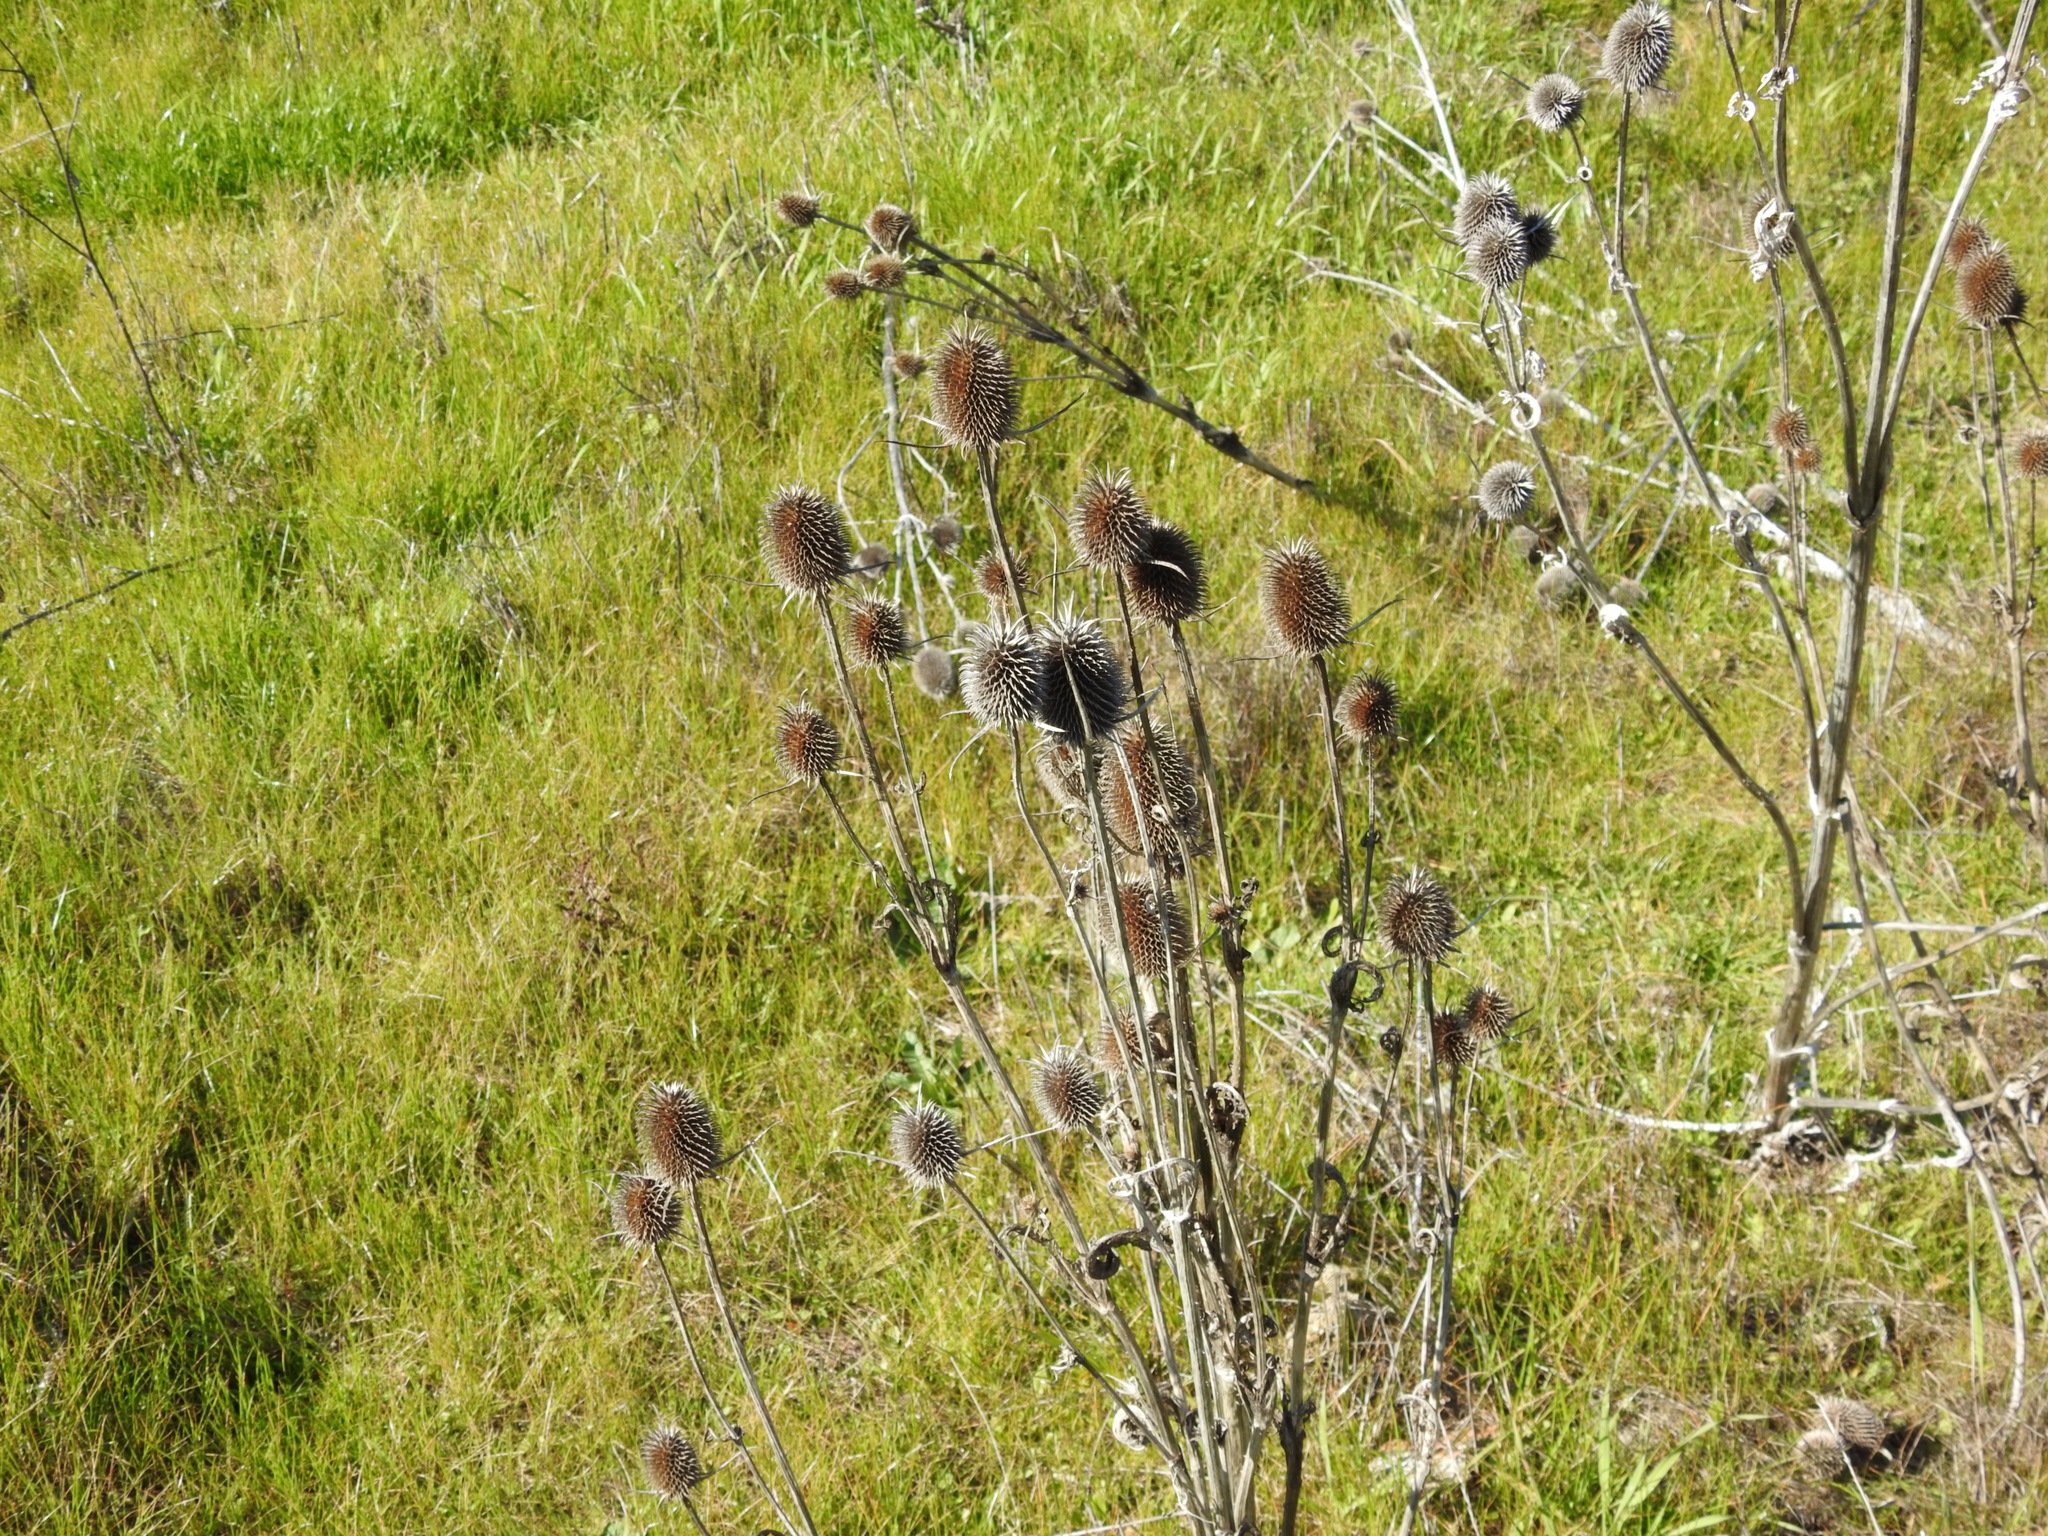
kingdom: Plantae
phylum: Tracheophyta
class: Magnoliopsida
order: Dipsacales
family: Caprifoliaceae
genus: Dipsacus
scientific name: Dipsacus sativus
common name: Fuller's teasel
